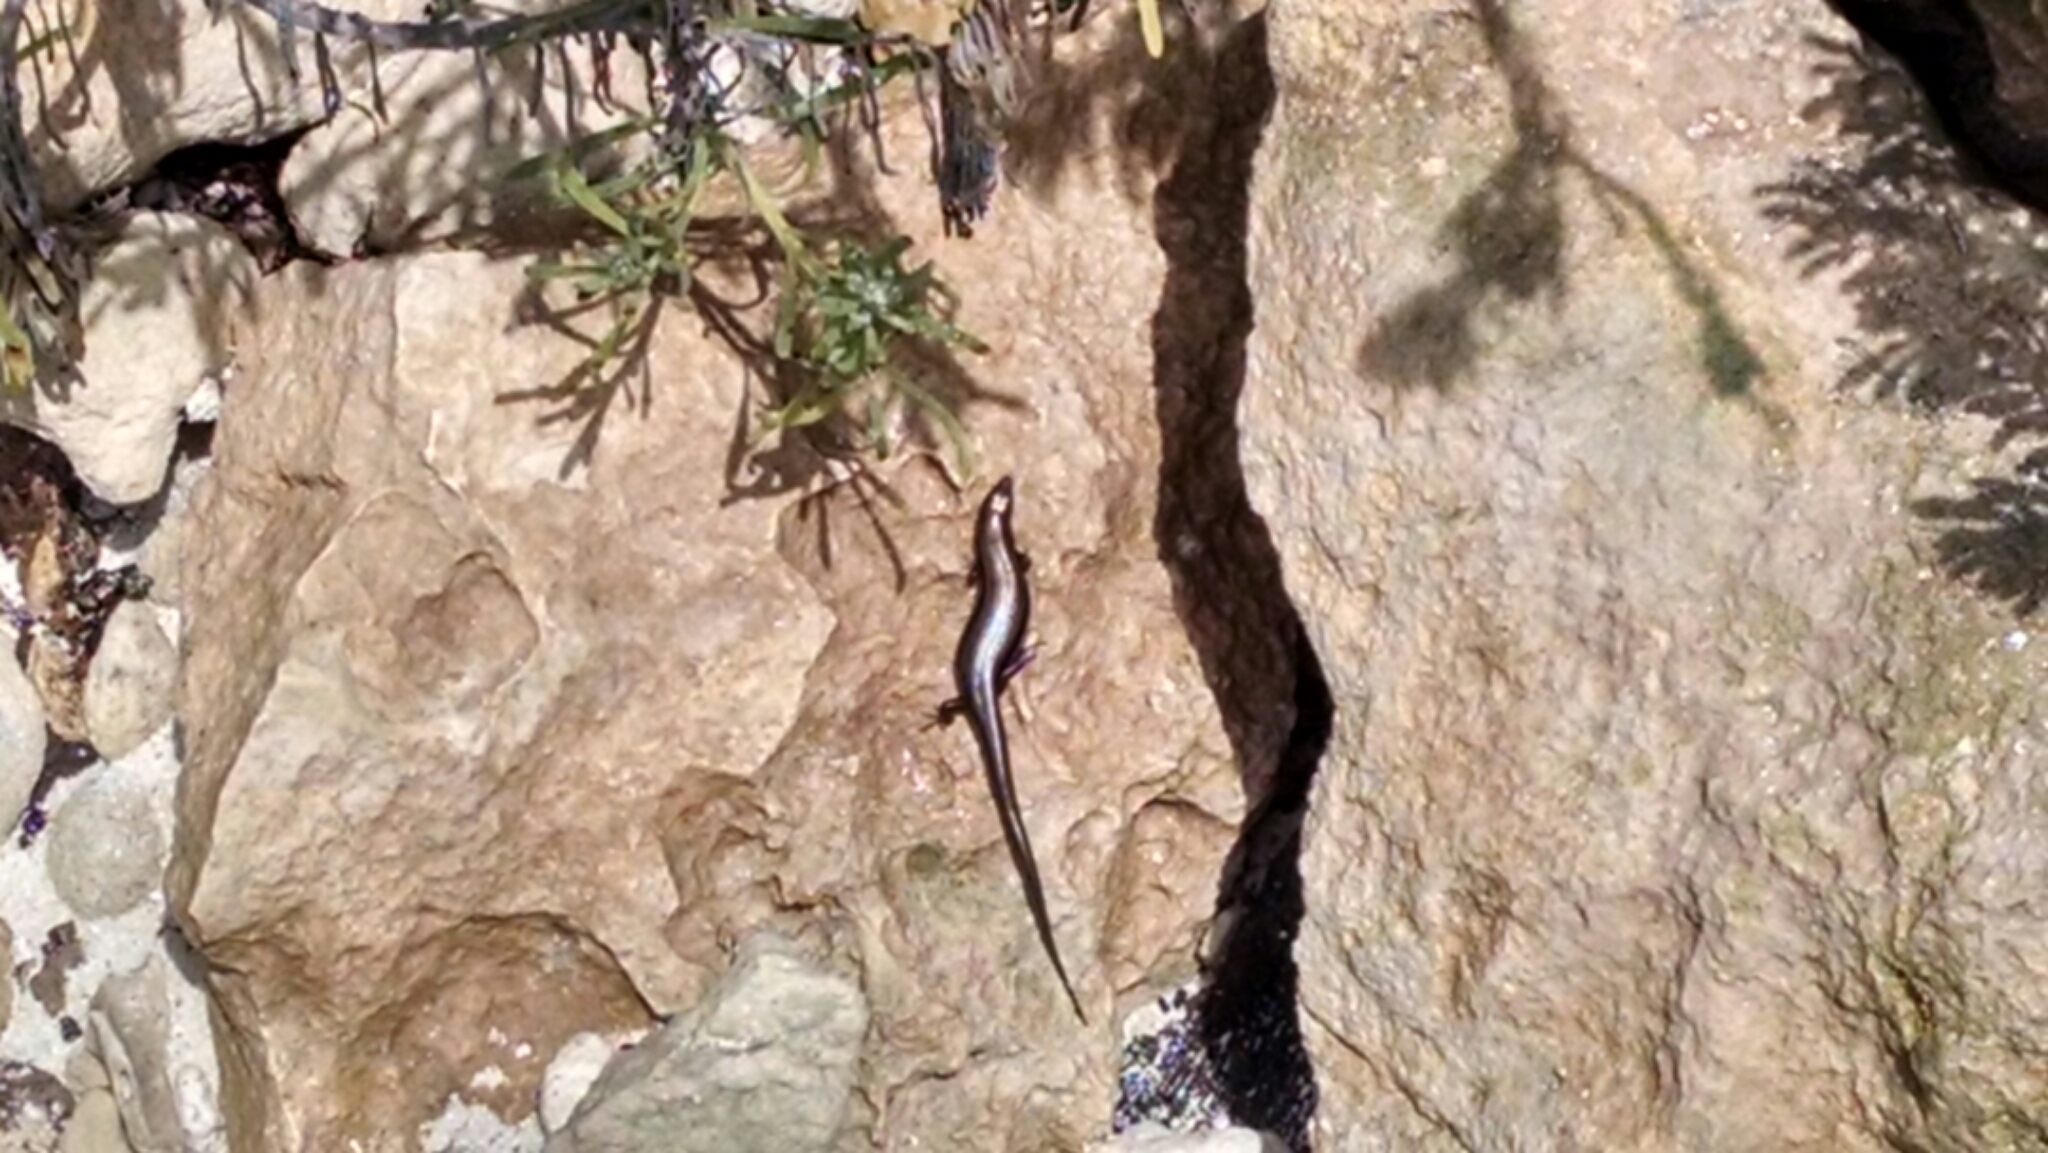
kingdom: Animalia
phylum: Chordata
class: Squamata
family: Scincidae
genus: Marisora
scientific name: Marisora lineola
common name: Mayan skink
